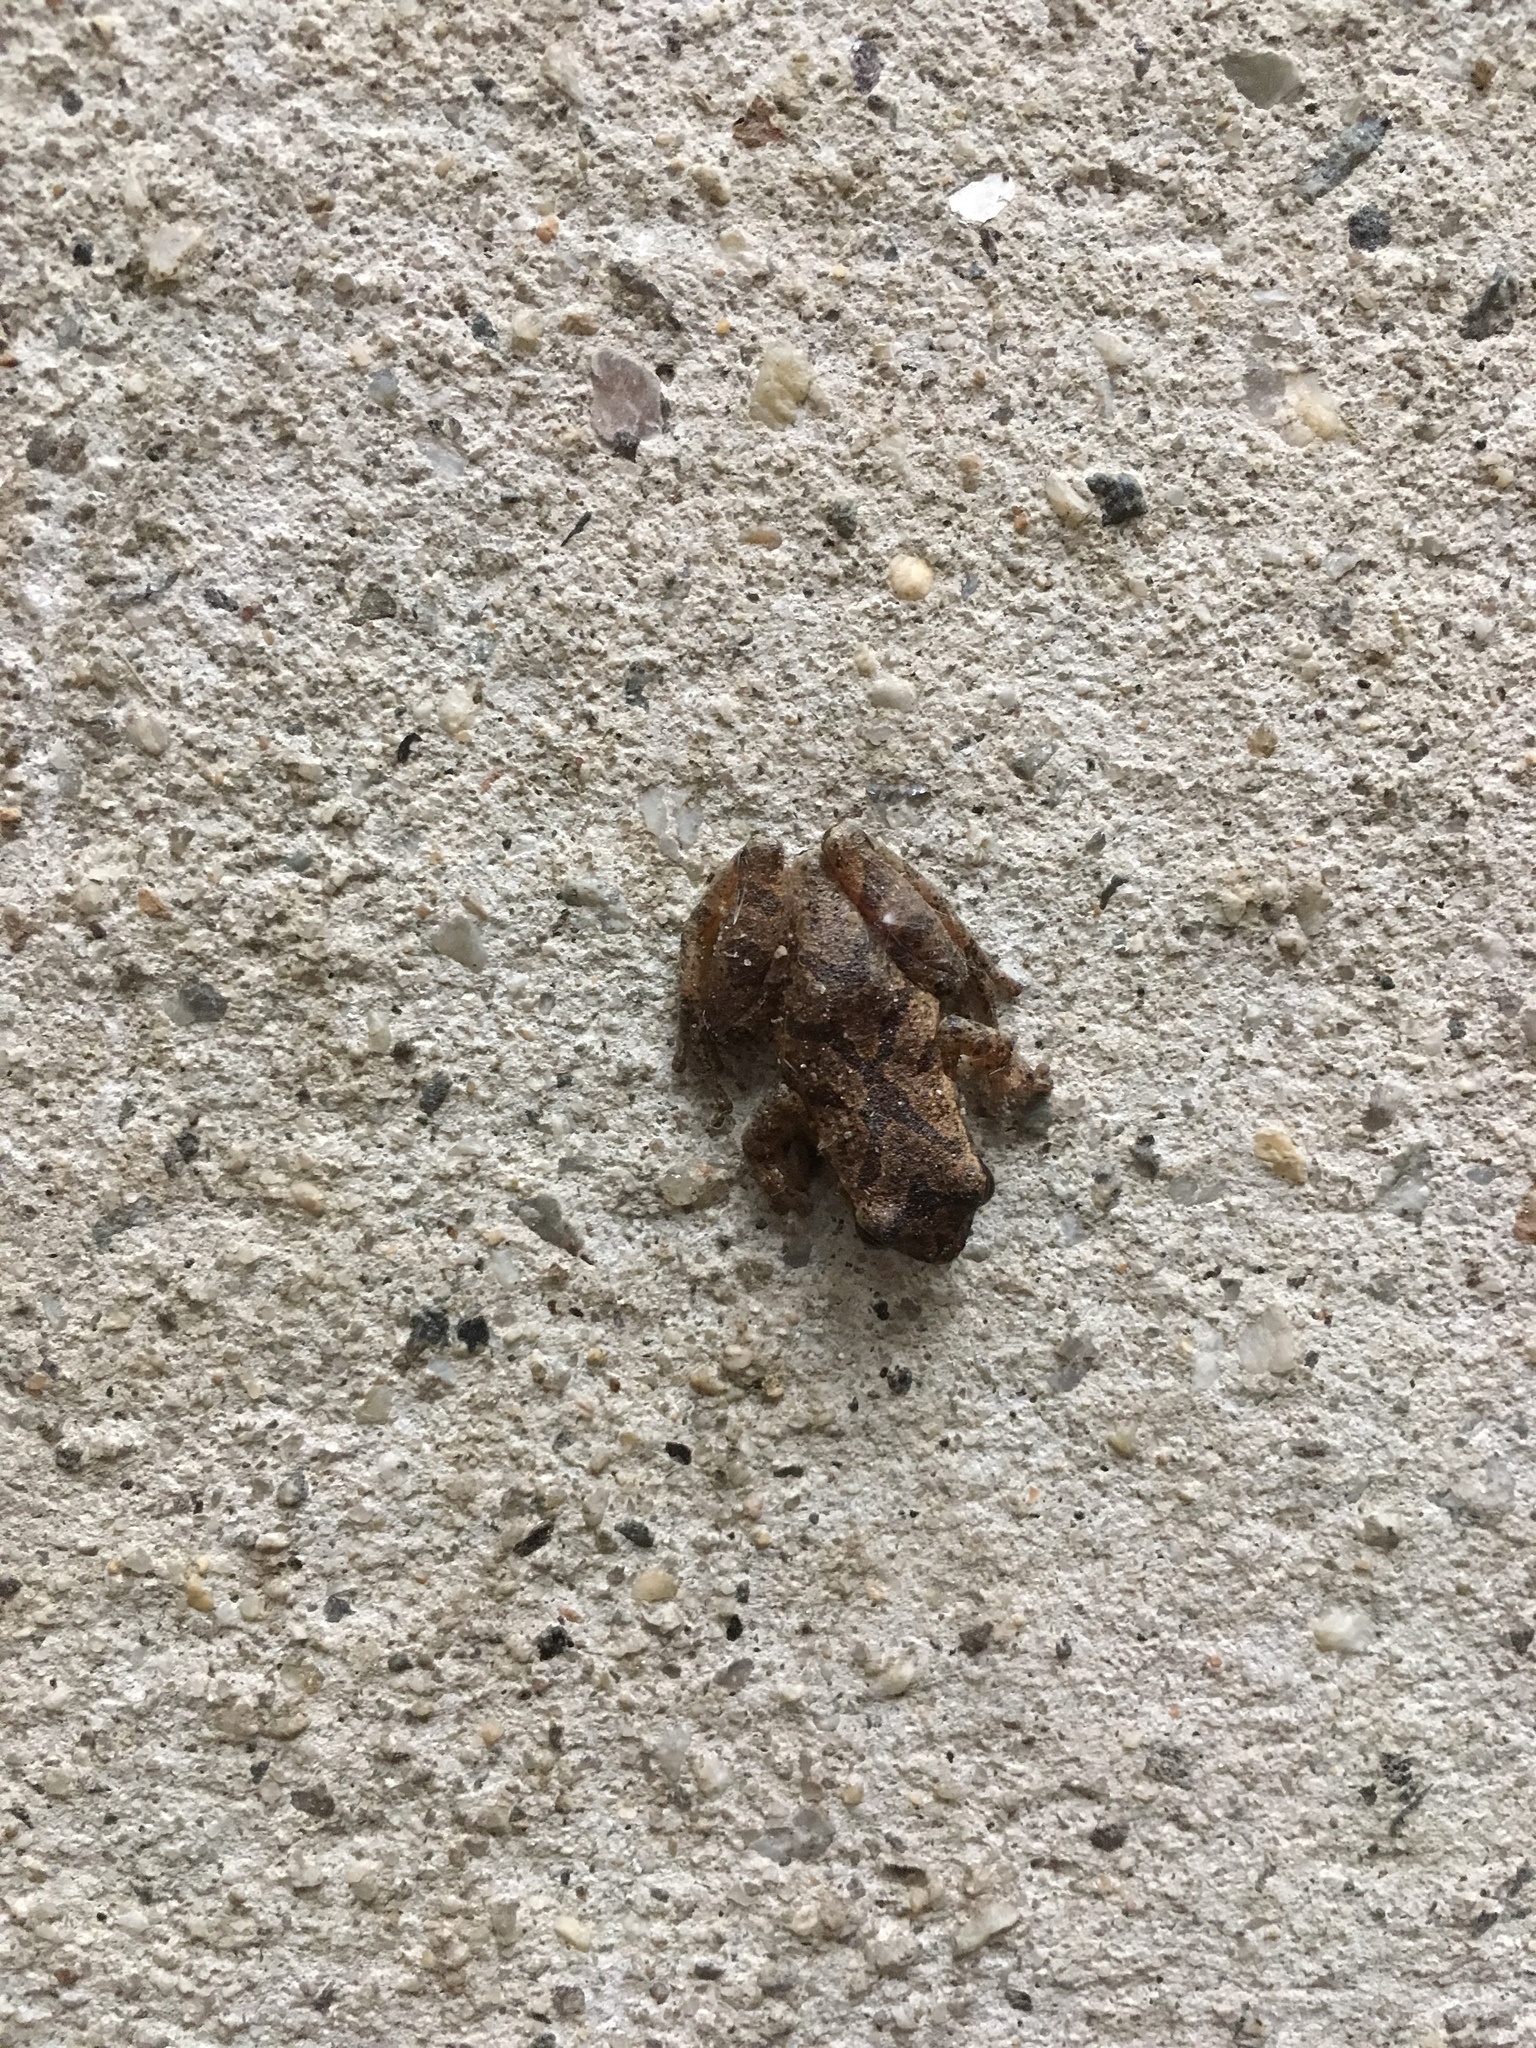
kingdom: Animalia
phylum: Chordata
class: Amphibia
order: Anura
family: Hylidae
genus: Pseudacris
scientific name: Pseudacris crucifer
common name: Spring peeper
